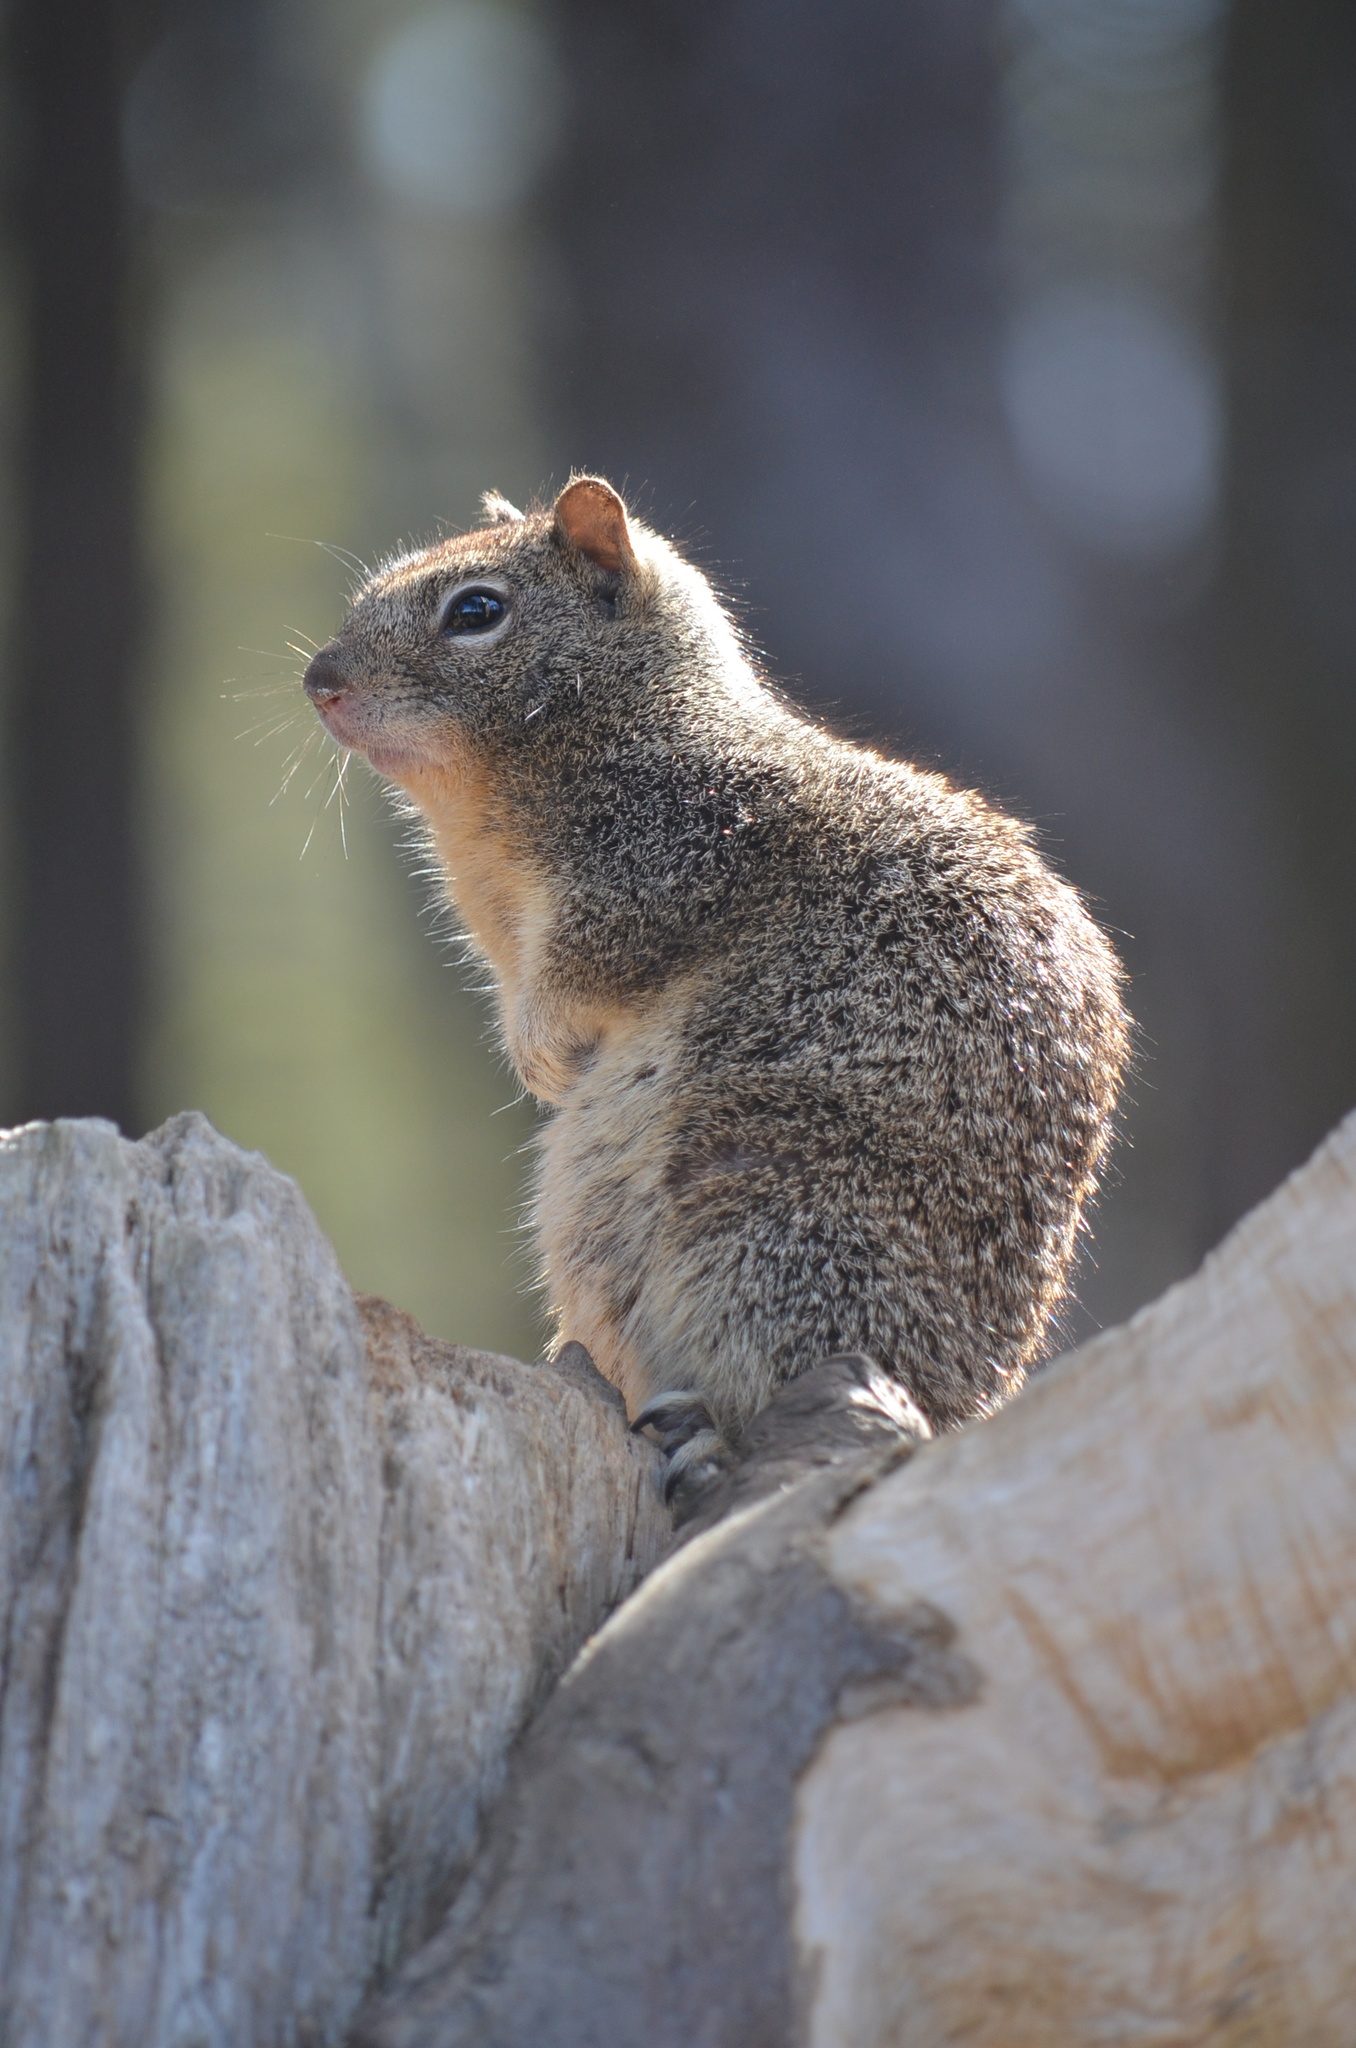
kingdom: Animalia
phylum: Chordata
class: Mammalia
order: Rodentia
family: Sciuridae
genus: Otospermophilus
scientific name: Otospermophilus beecheyi
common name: California ground squirrel
